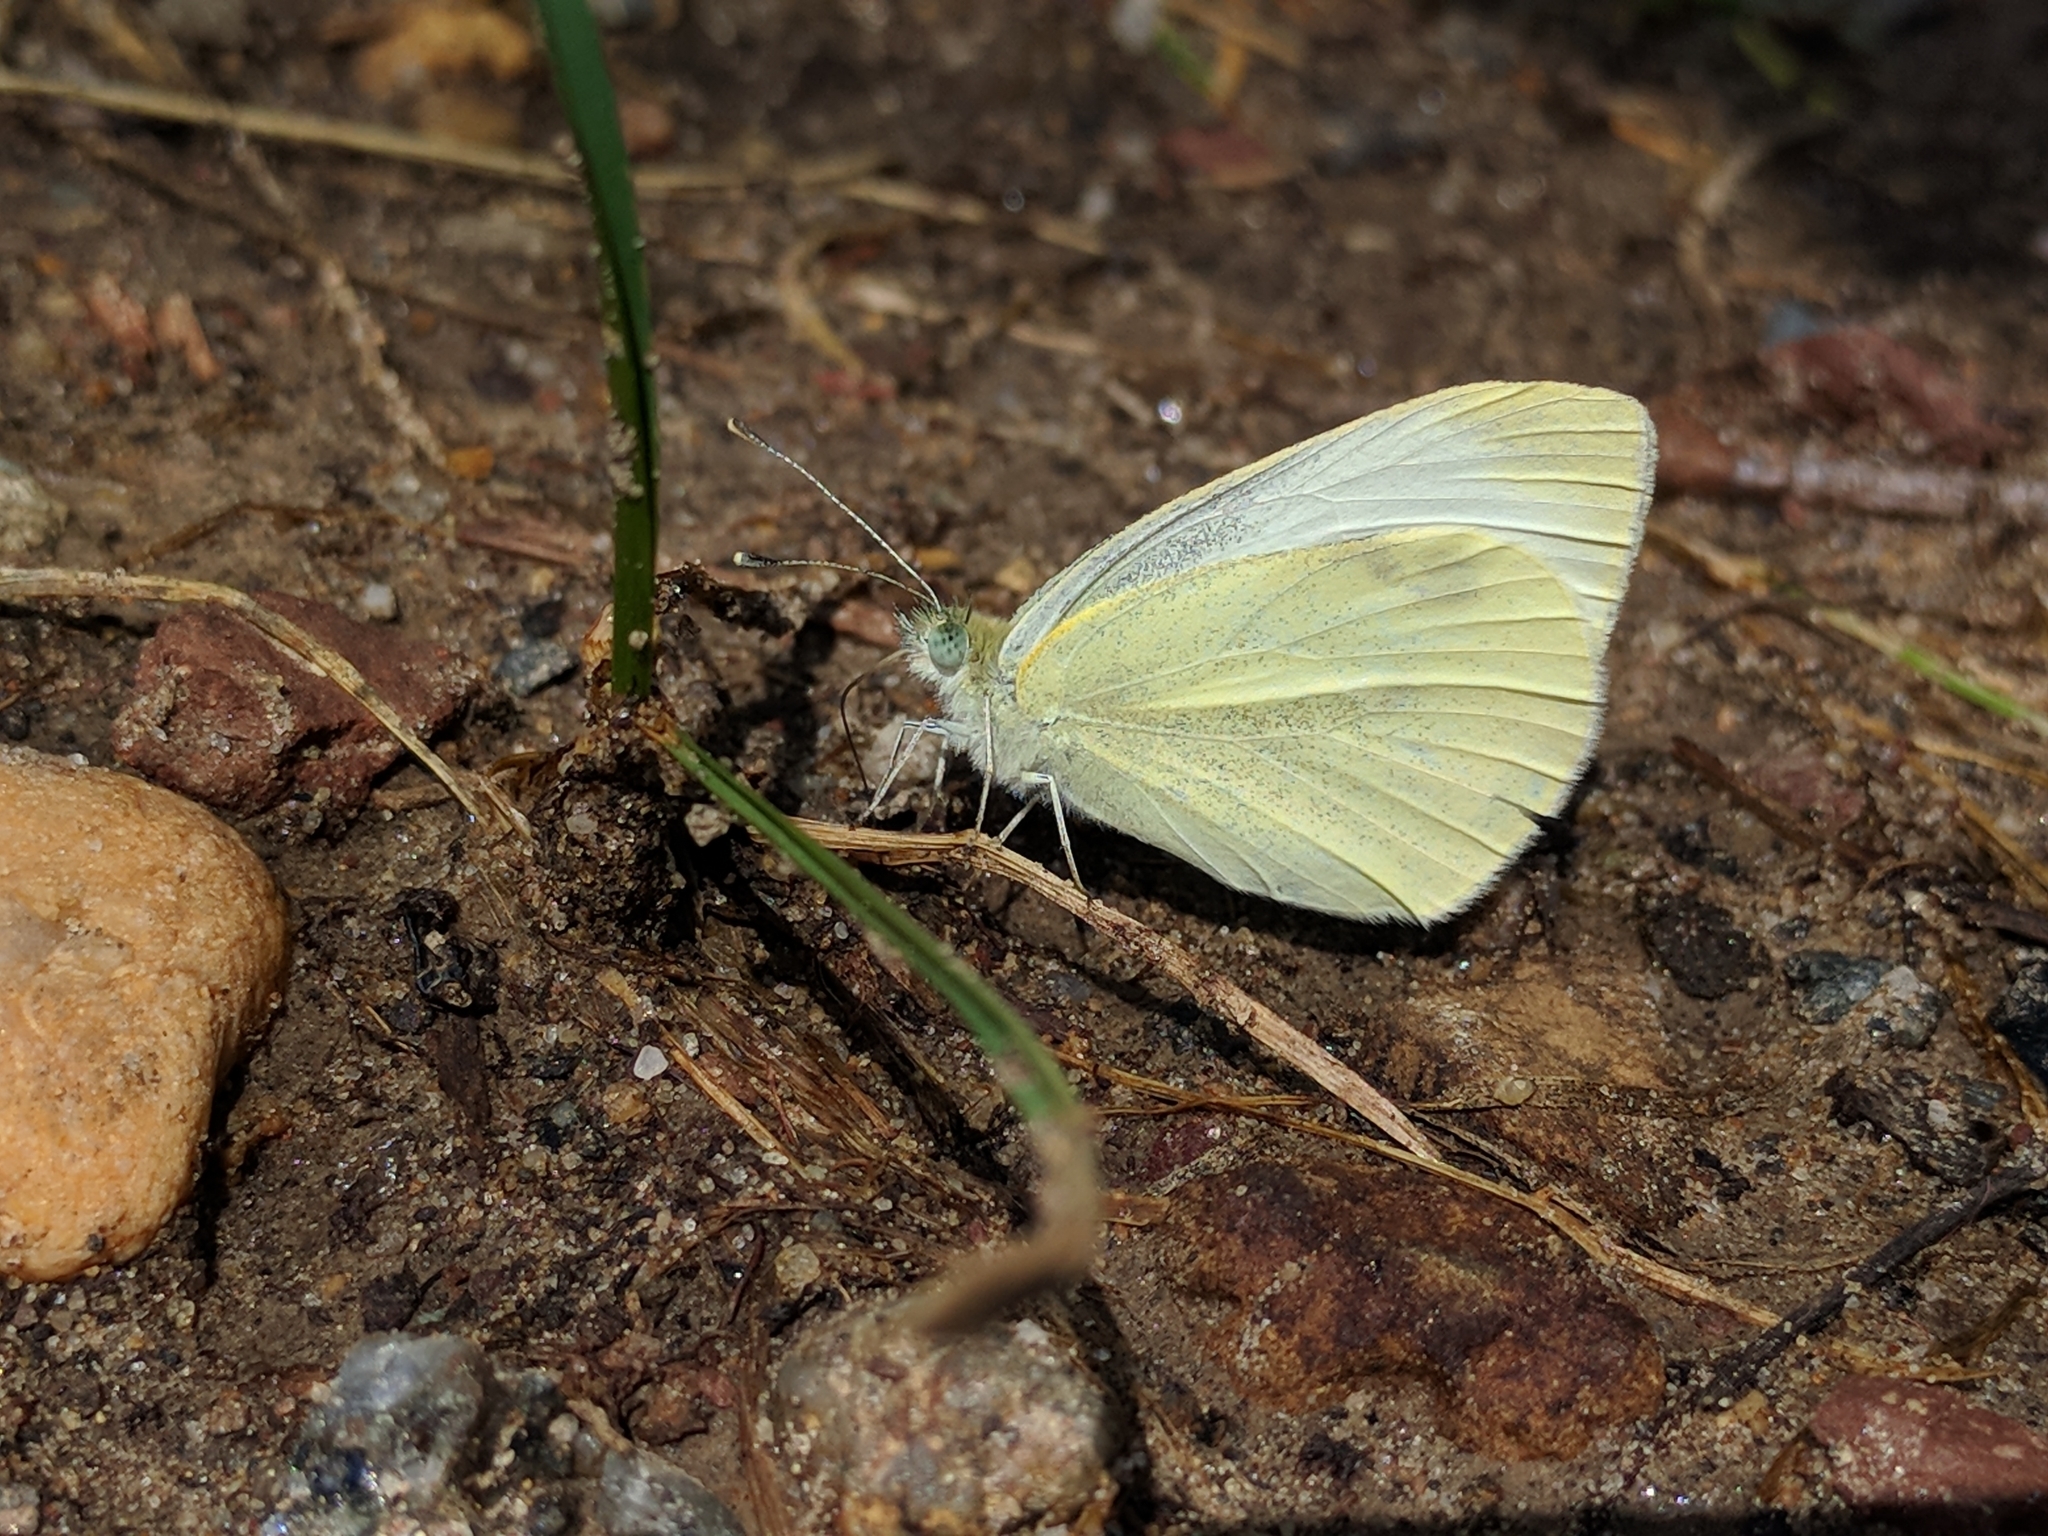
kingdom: Animalia
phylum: Arthropoda
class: Insecta
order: Lepidoptera
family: Pieridae
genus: Pieris
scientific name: Pieris rapae
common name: Small white
